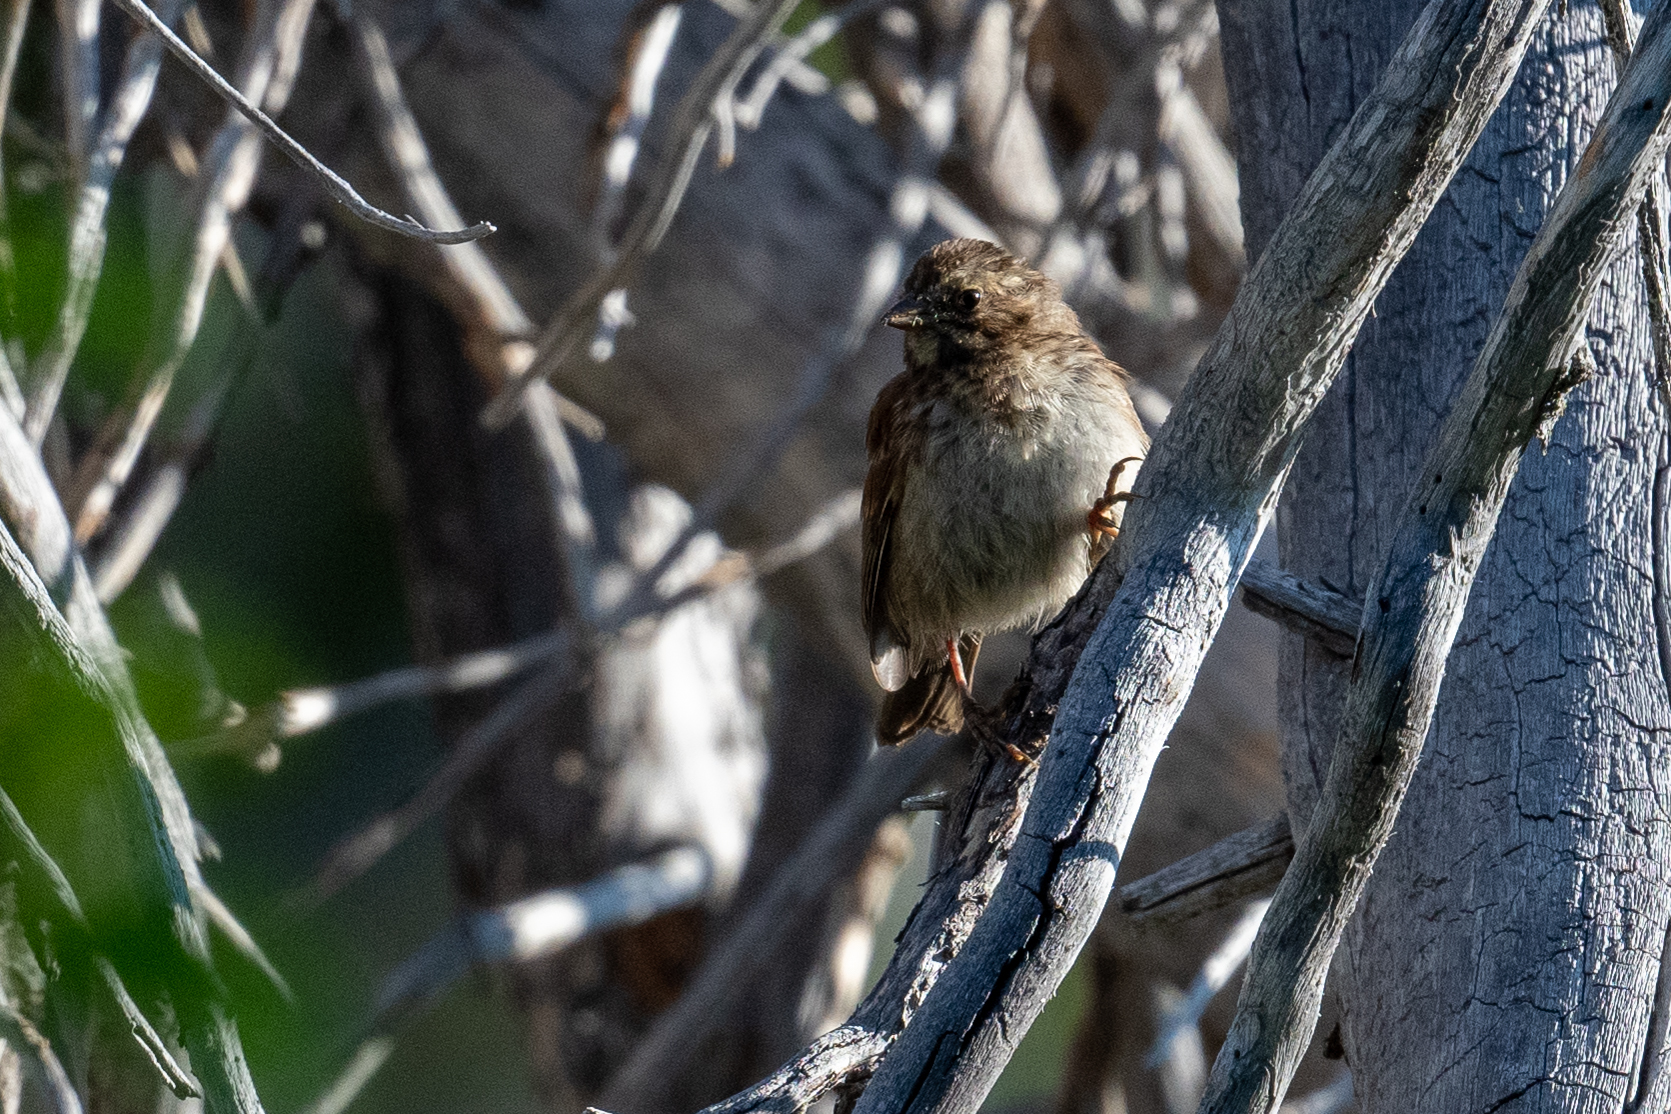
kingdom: Animalia
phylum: Chordata
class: Aves
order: Passeriformes
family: Passerellidae
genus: Melospiza
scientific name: Melospiza melodia
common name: Song sparrow
